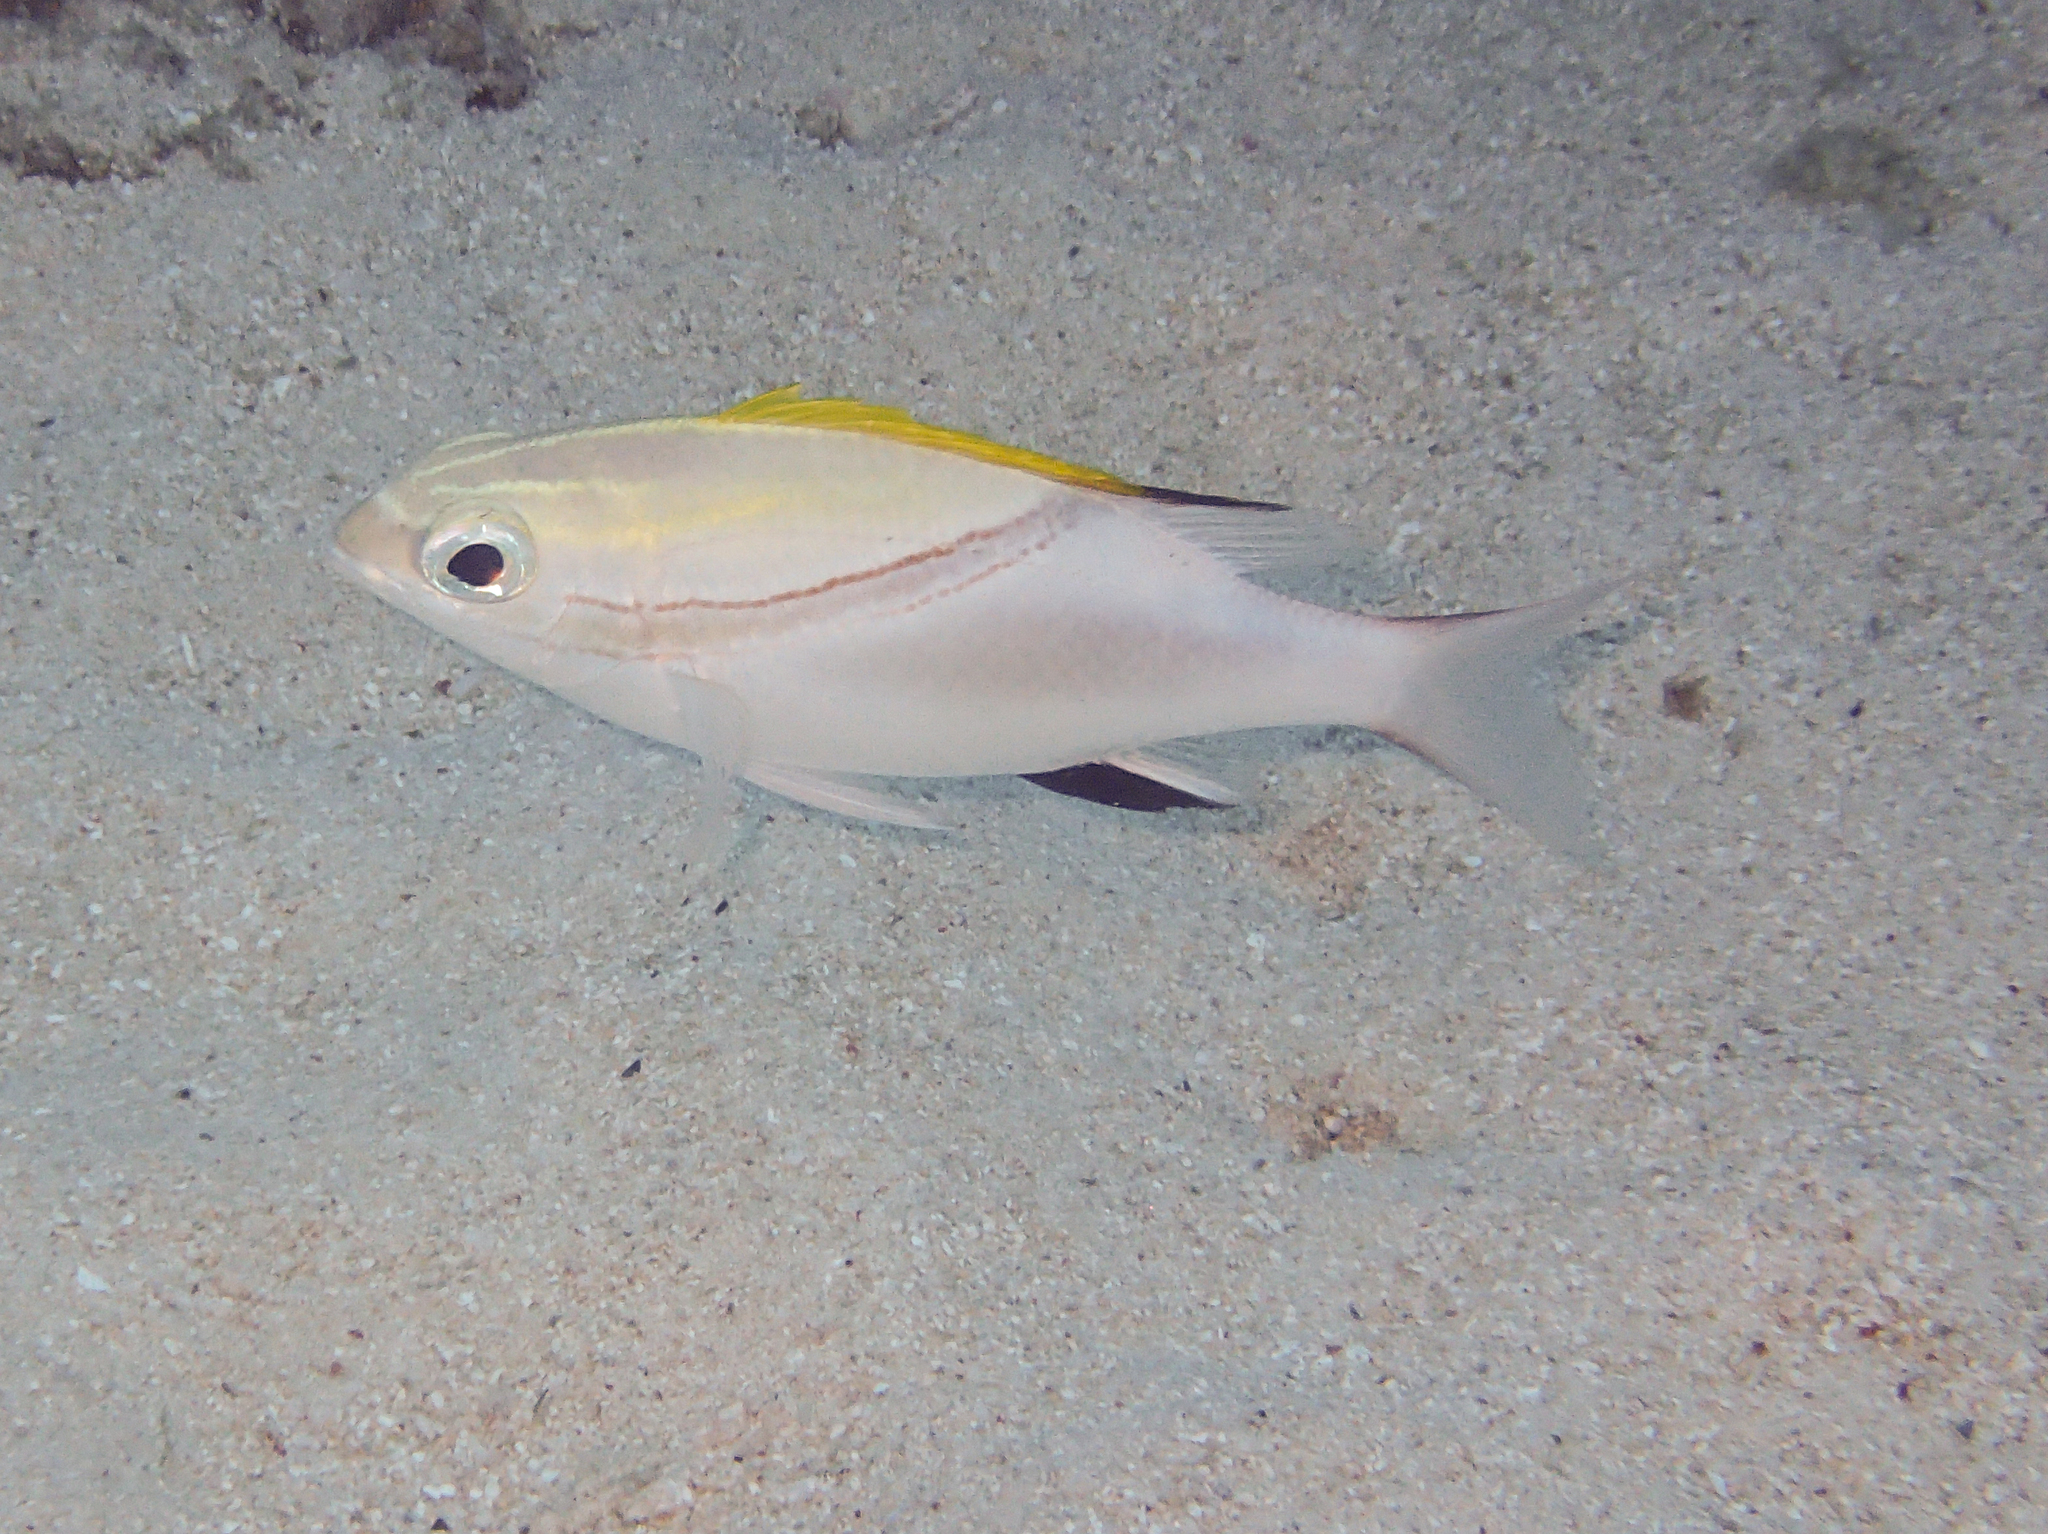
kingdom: Animalia
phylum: Chordata
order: Perciformes
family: Nemipteridae
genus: Scolopsis
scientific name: Scolopsis bilineata
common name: Two-lined monocle bream
